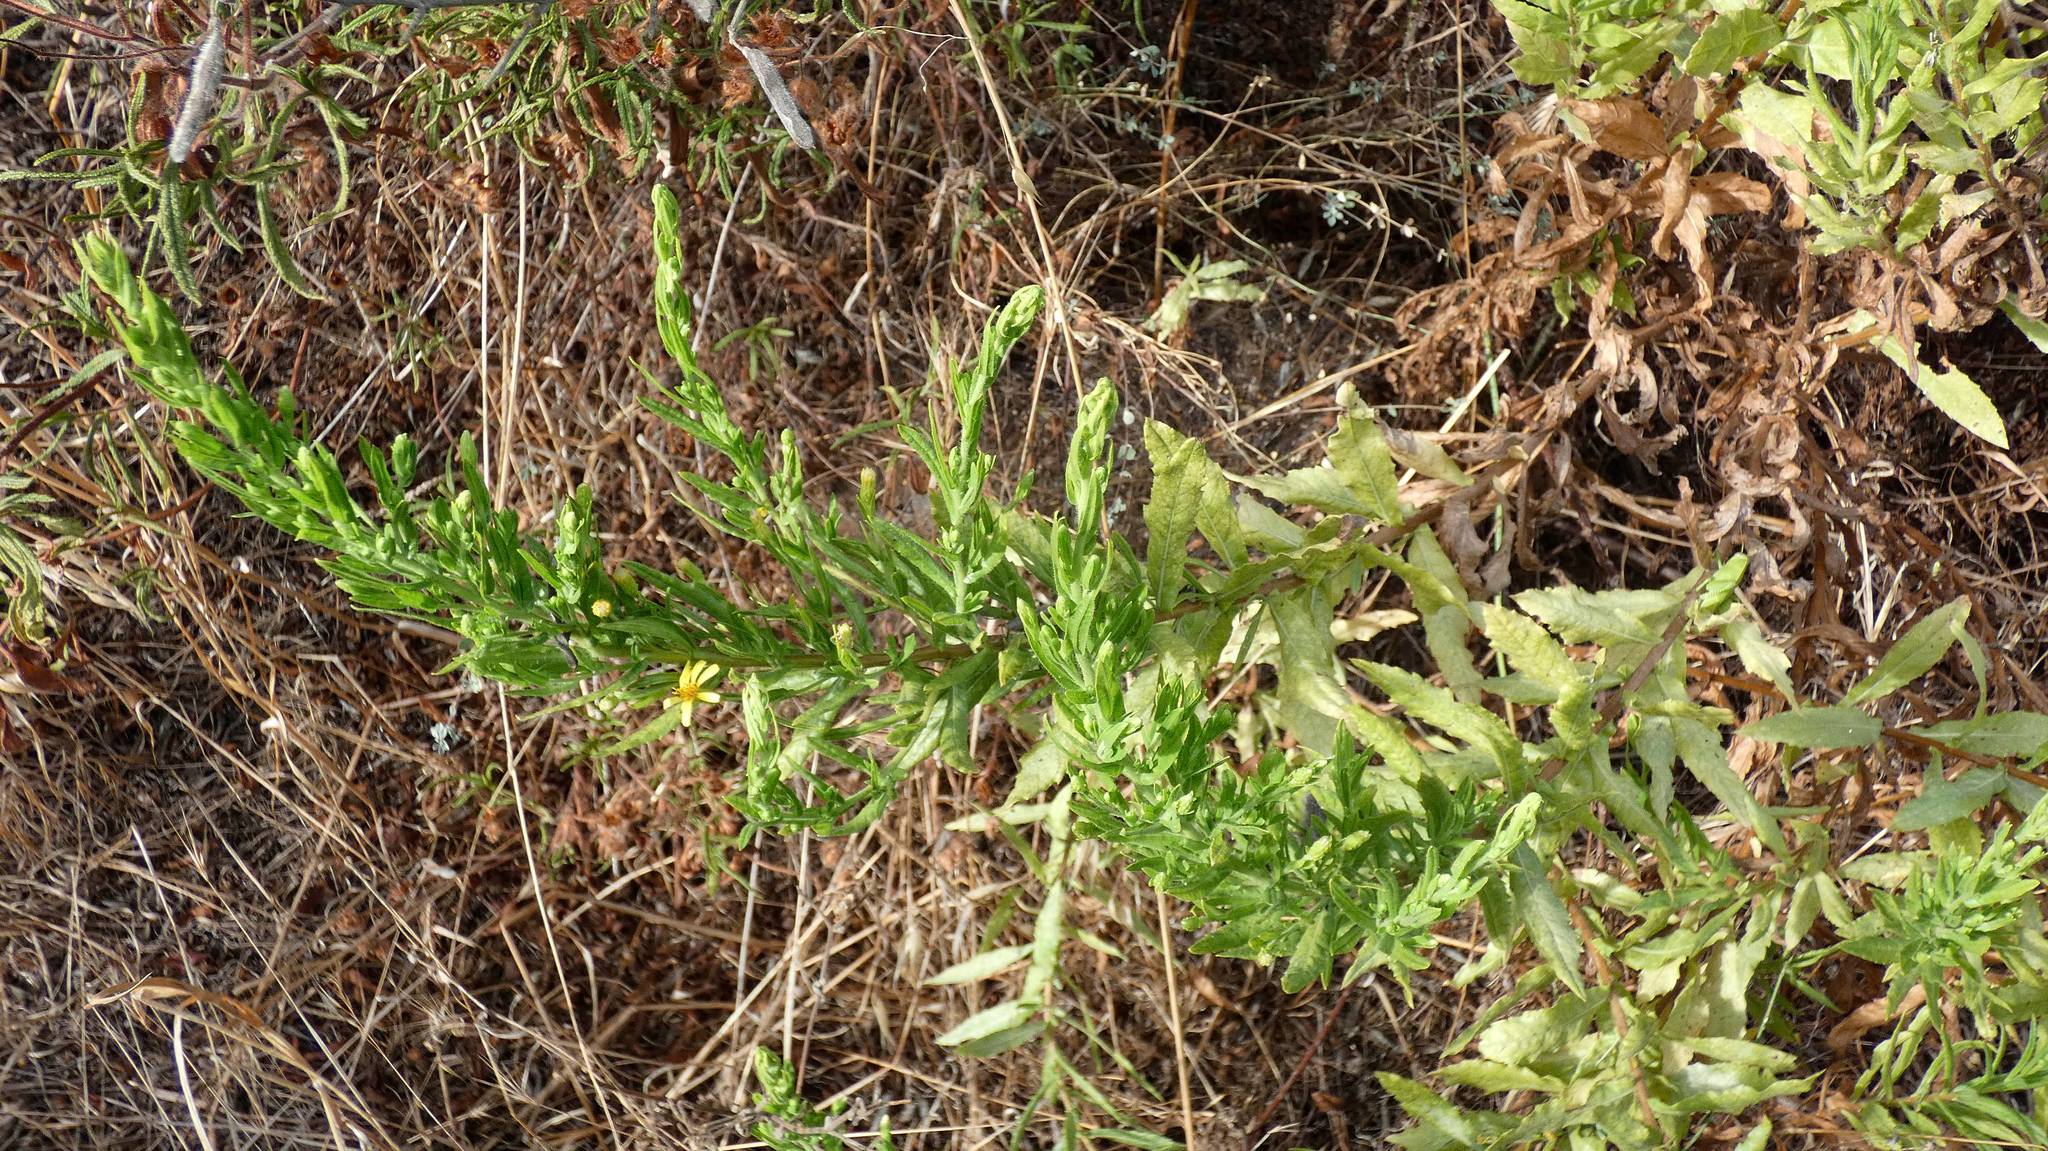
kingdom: Plantae
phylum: Tracheophyta
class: Magnoliopsida
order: Asterales
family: Asteraceae
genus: Dittrichia
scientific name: Dittrichia viscosa
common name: Woody fleabane
